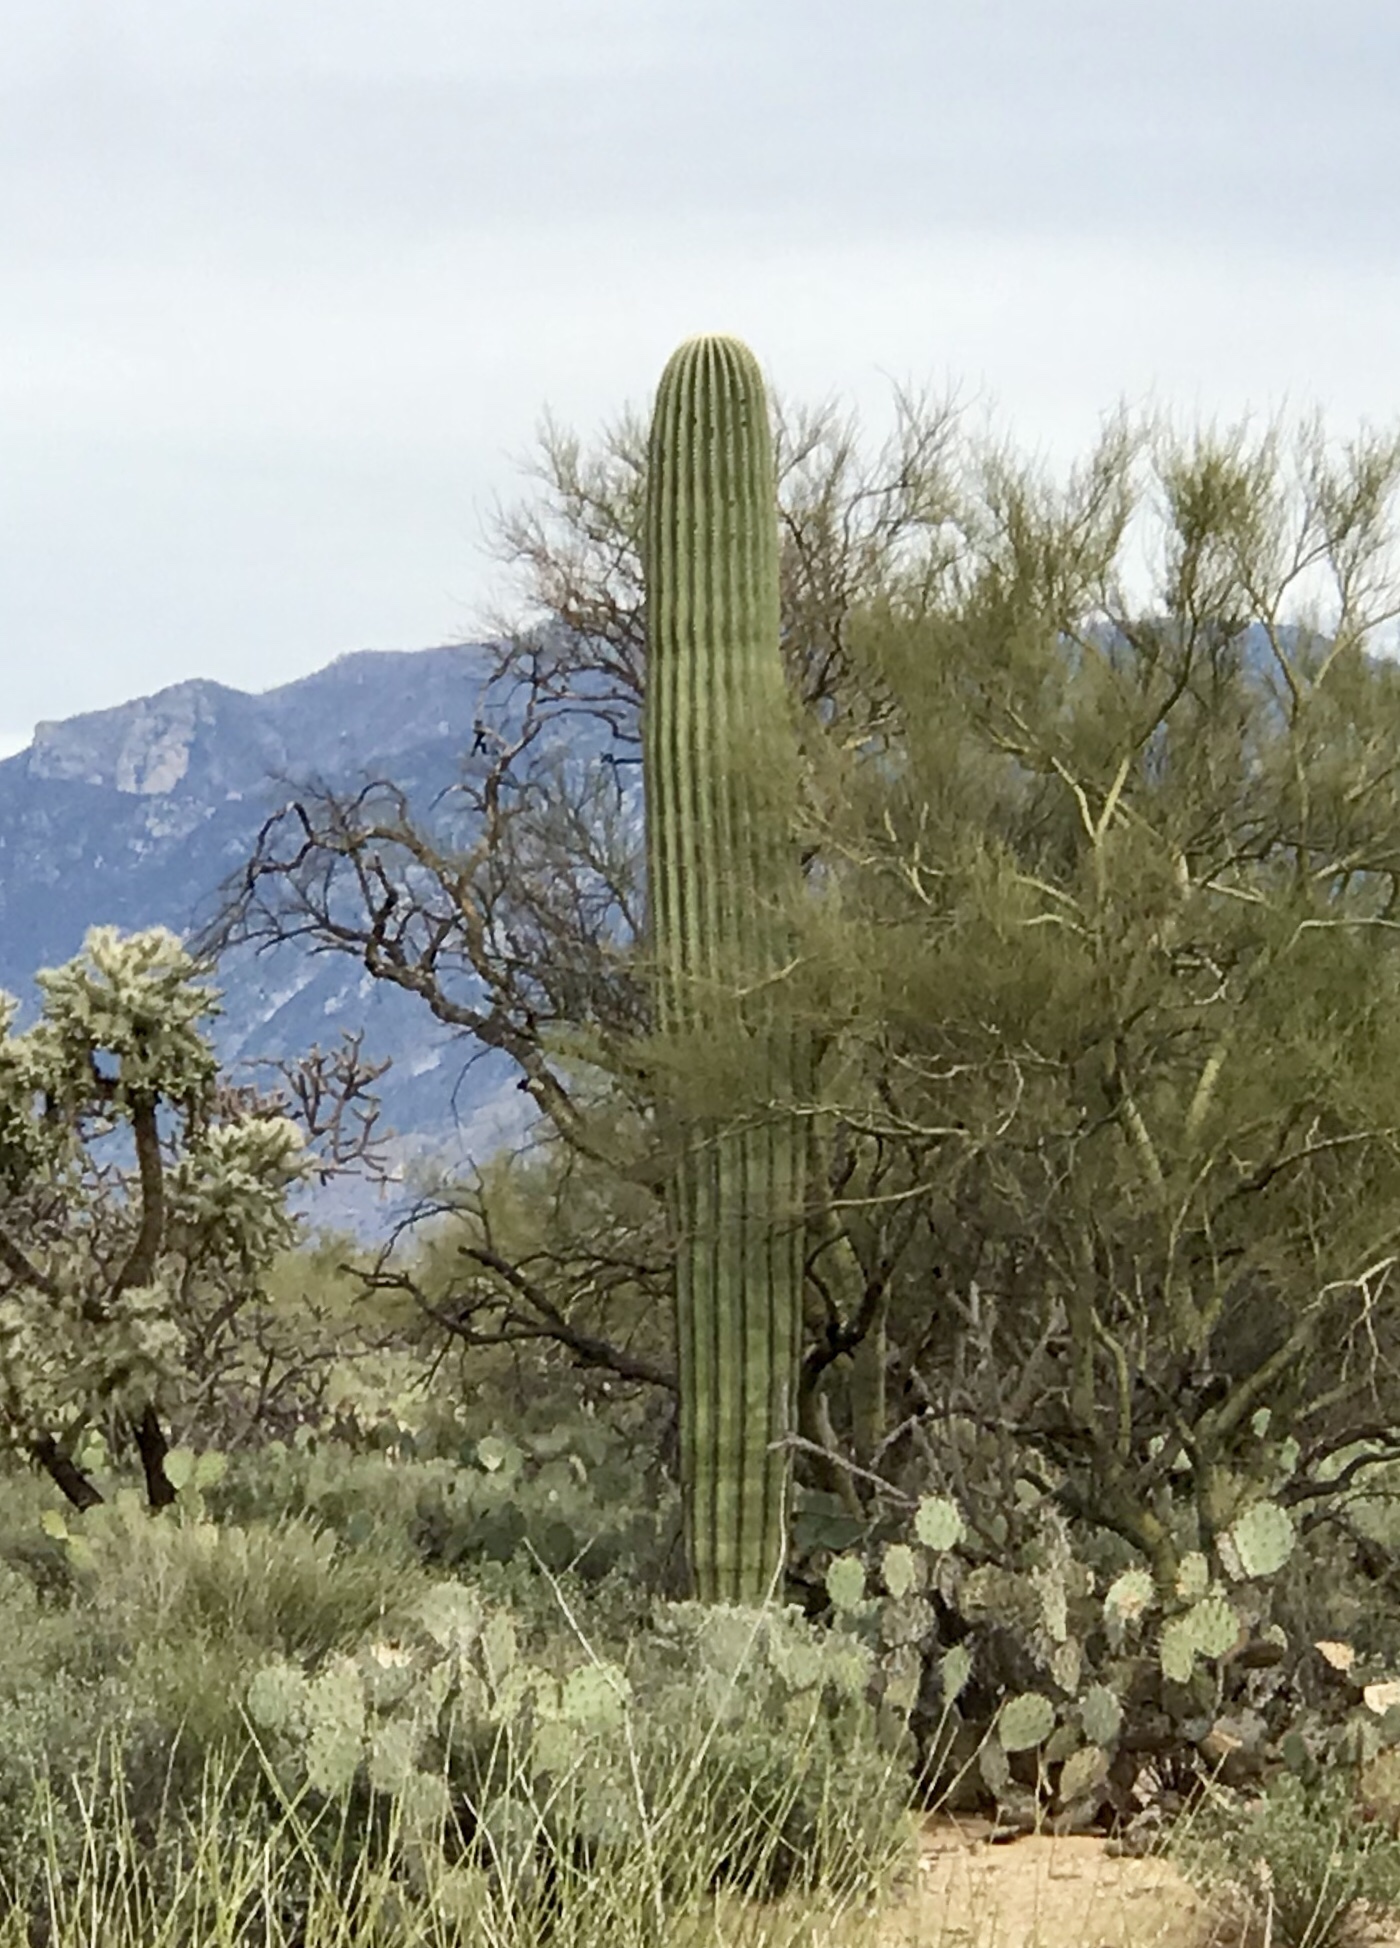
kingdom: Plantae
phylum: Tracheophyta
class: Magnoliopsida
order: Caryophyllales
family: Cactaceae
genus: Carnegiea
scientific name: Carnegiea gigantea
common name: Saguaro
